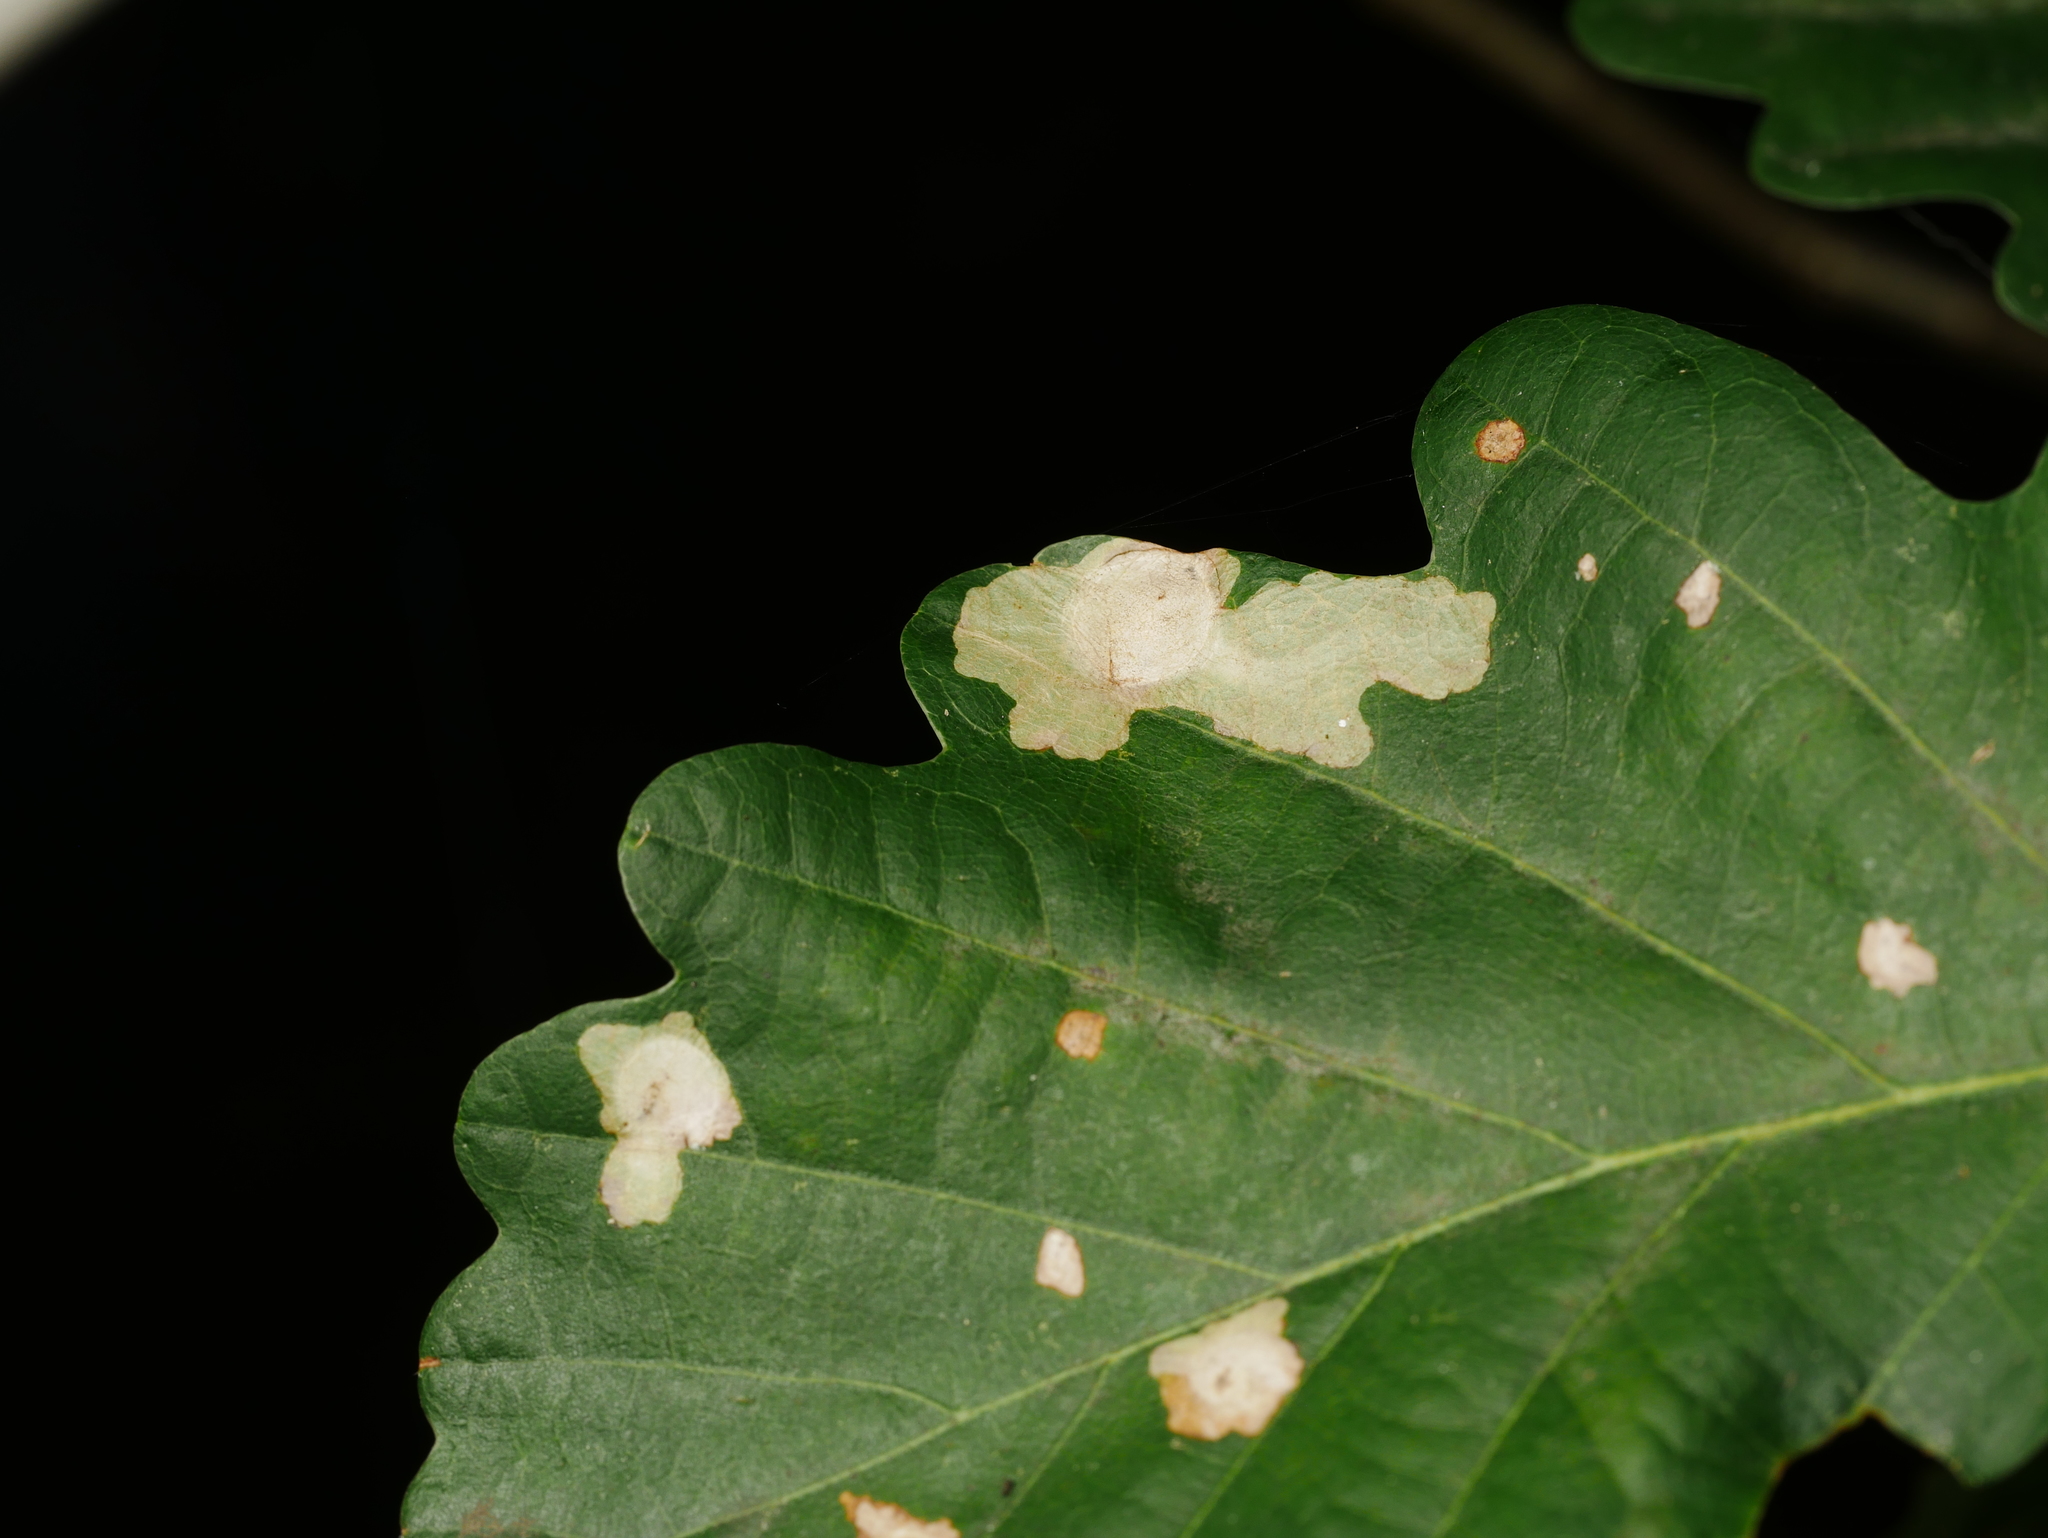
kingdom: Animalia
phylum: Arthropoda
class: Insecta
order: Lepidoptera
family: Tischeriidae
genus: Tischeria
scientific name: Tischeria ekebladella
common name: Oak carl
